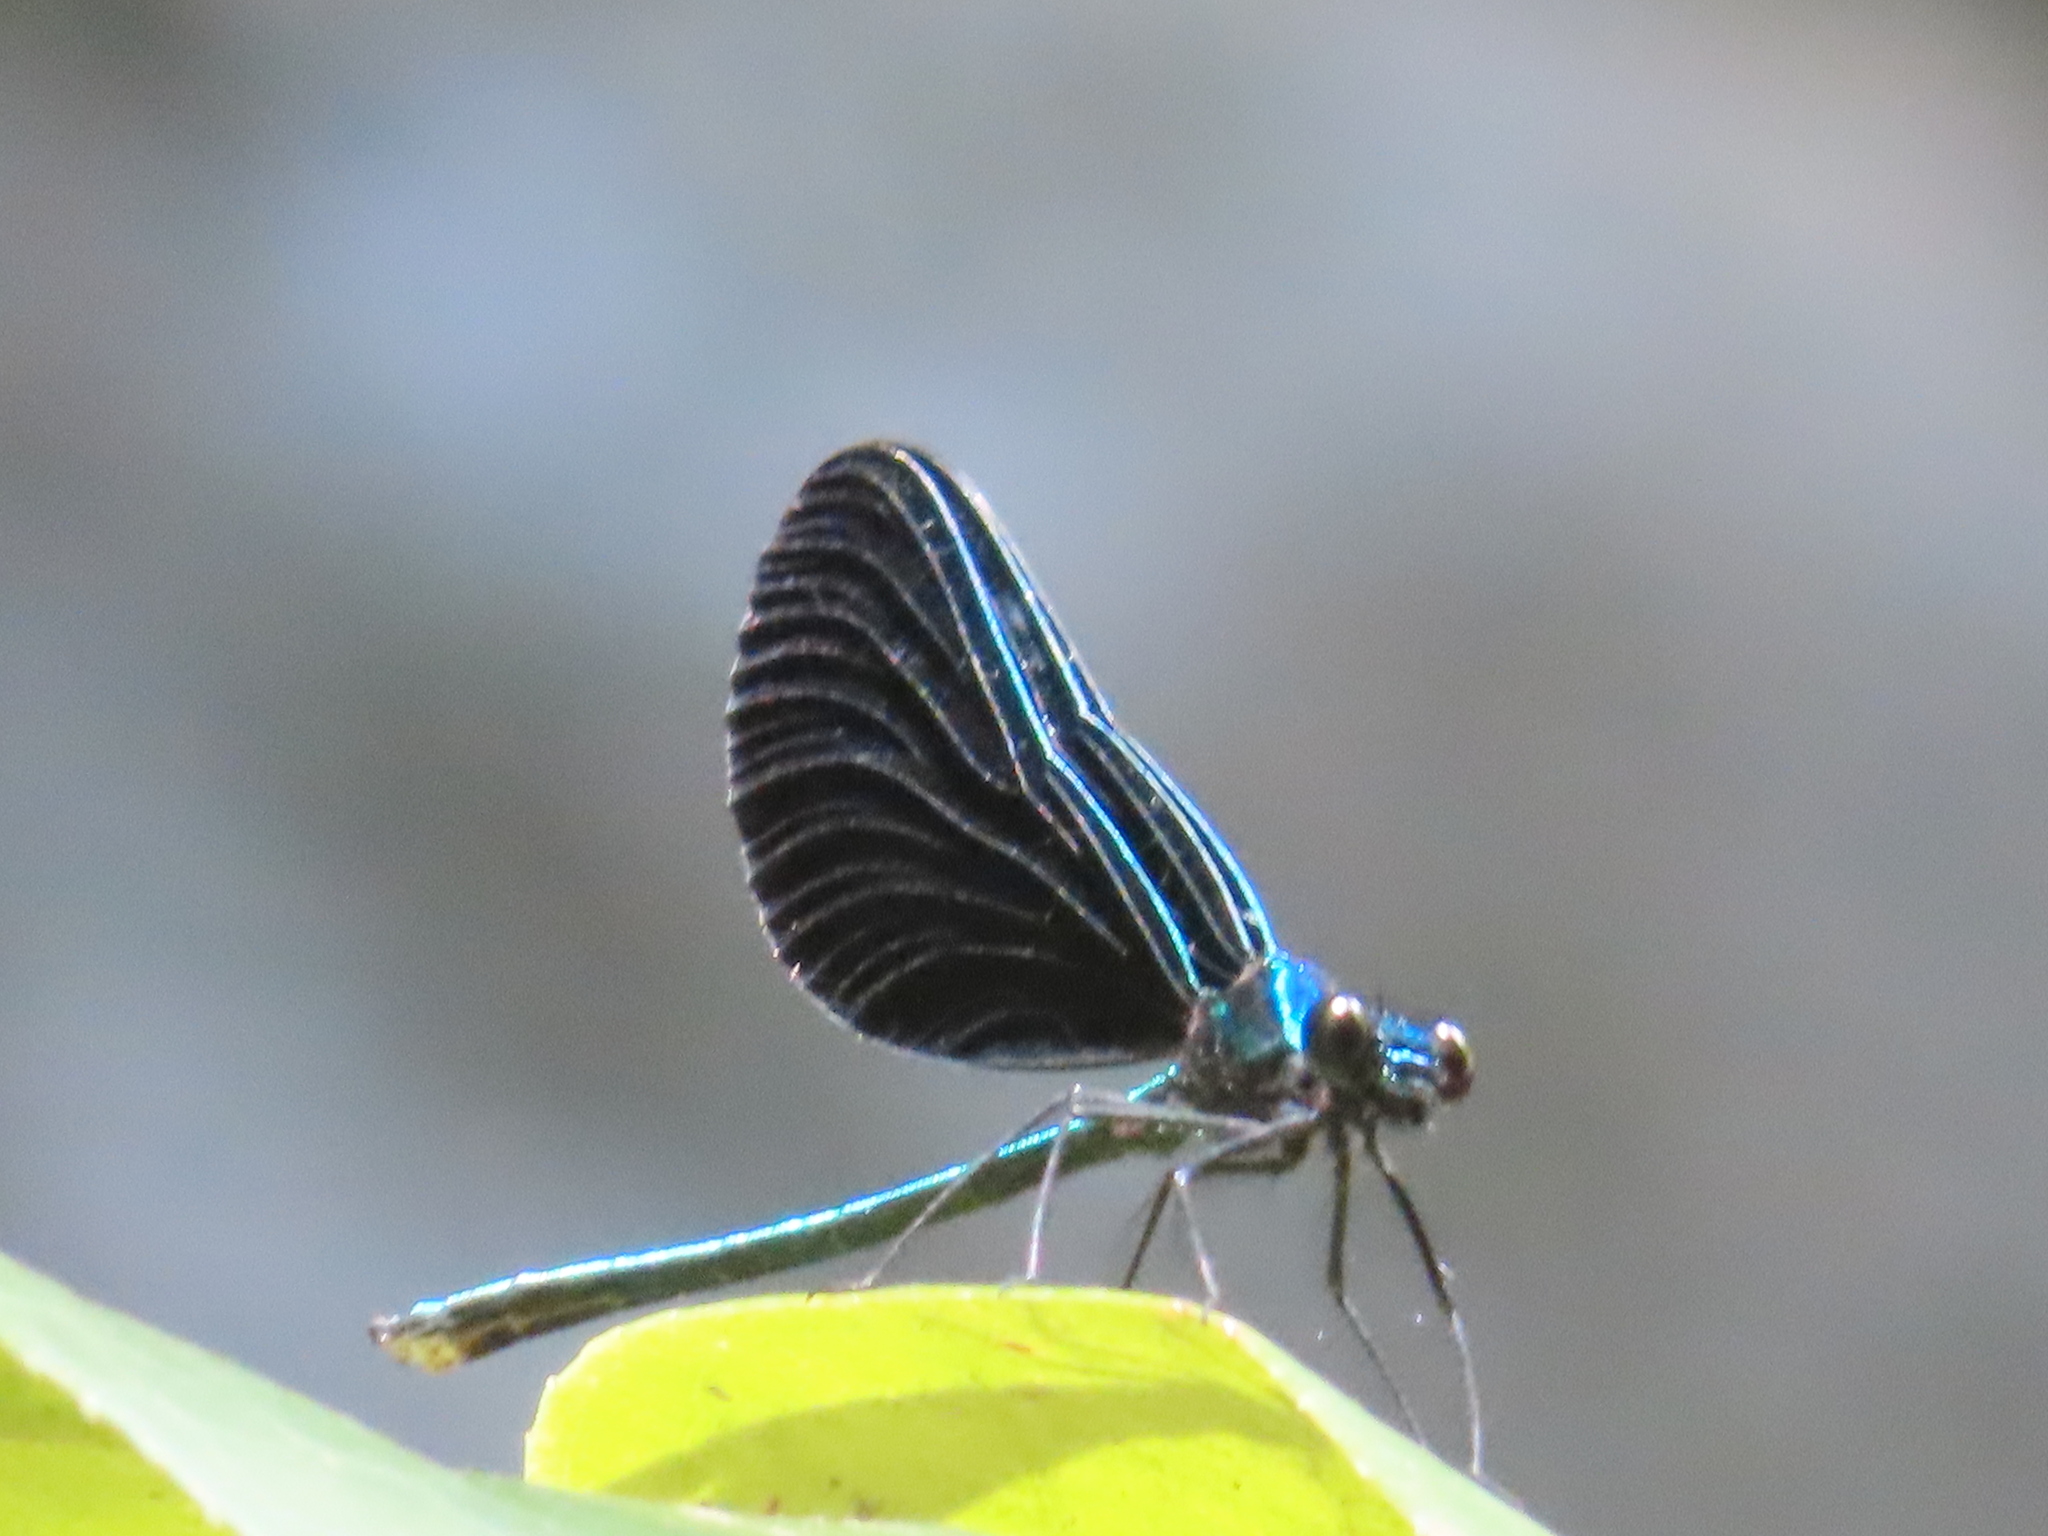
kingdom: Animalia
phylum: Arthropoda
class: Insecta
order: Odonata
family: Calopterygidae
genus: Calopteryx
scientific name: Calopteryx maculata
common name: Ebony jewelwing
